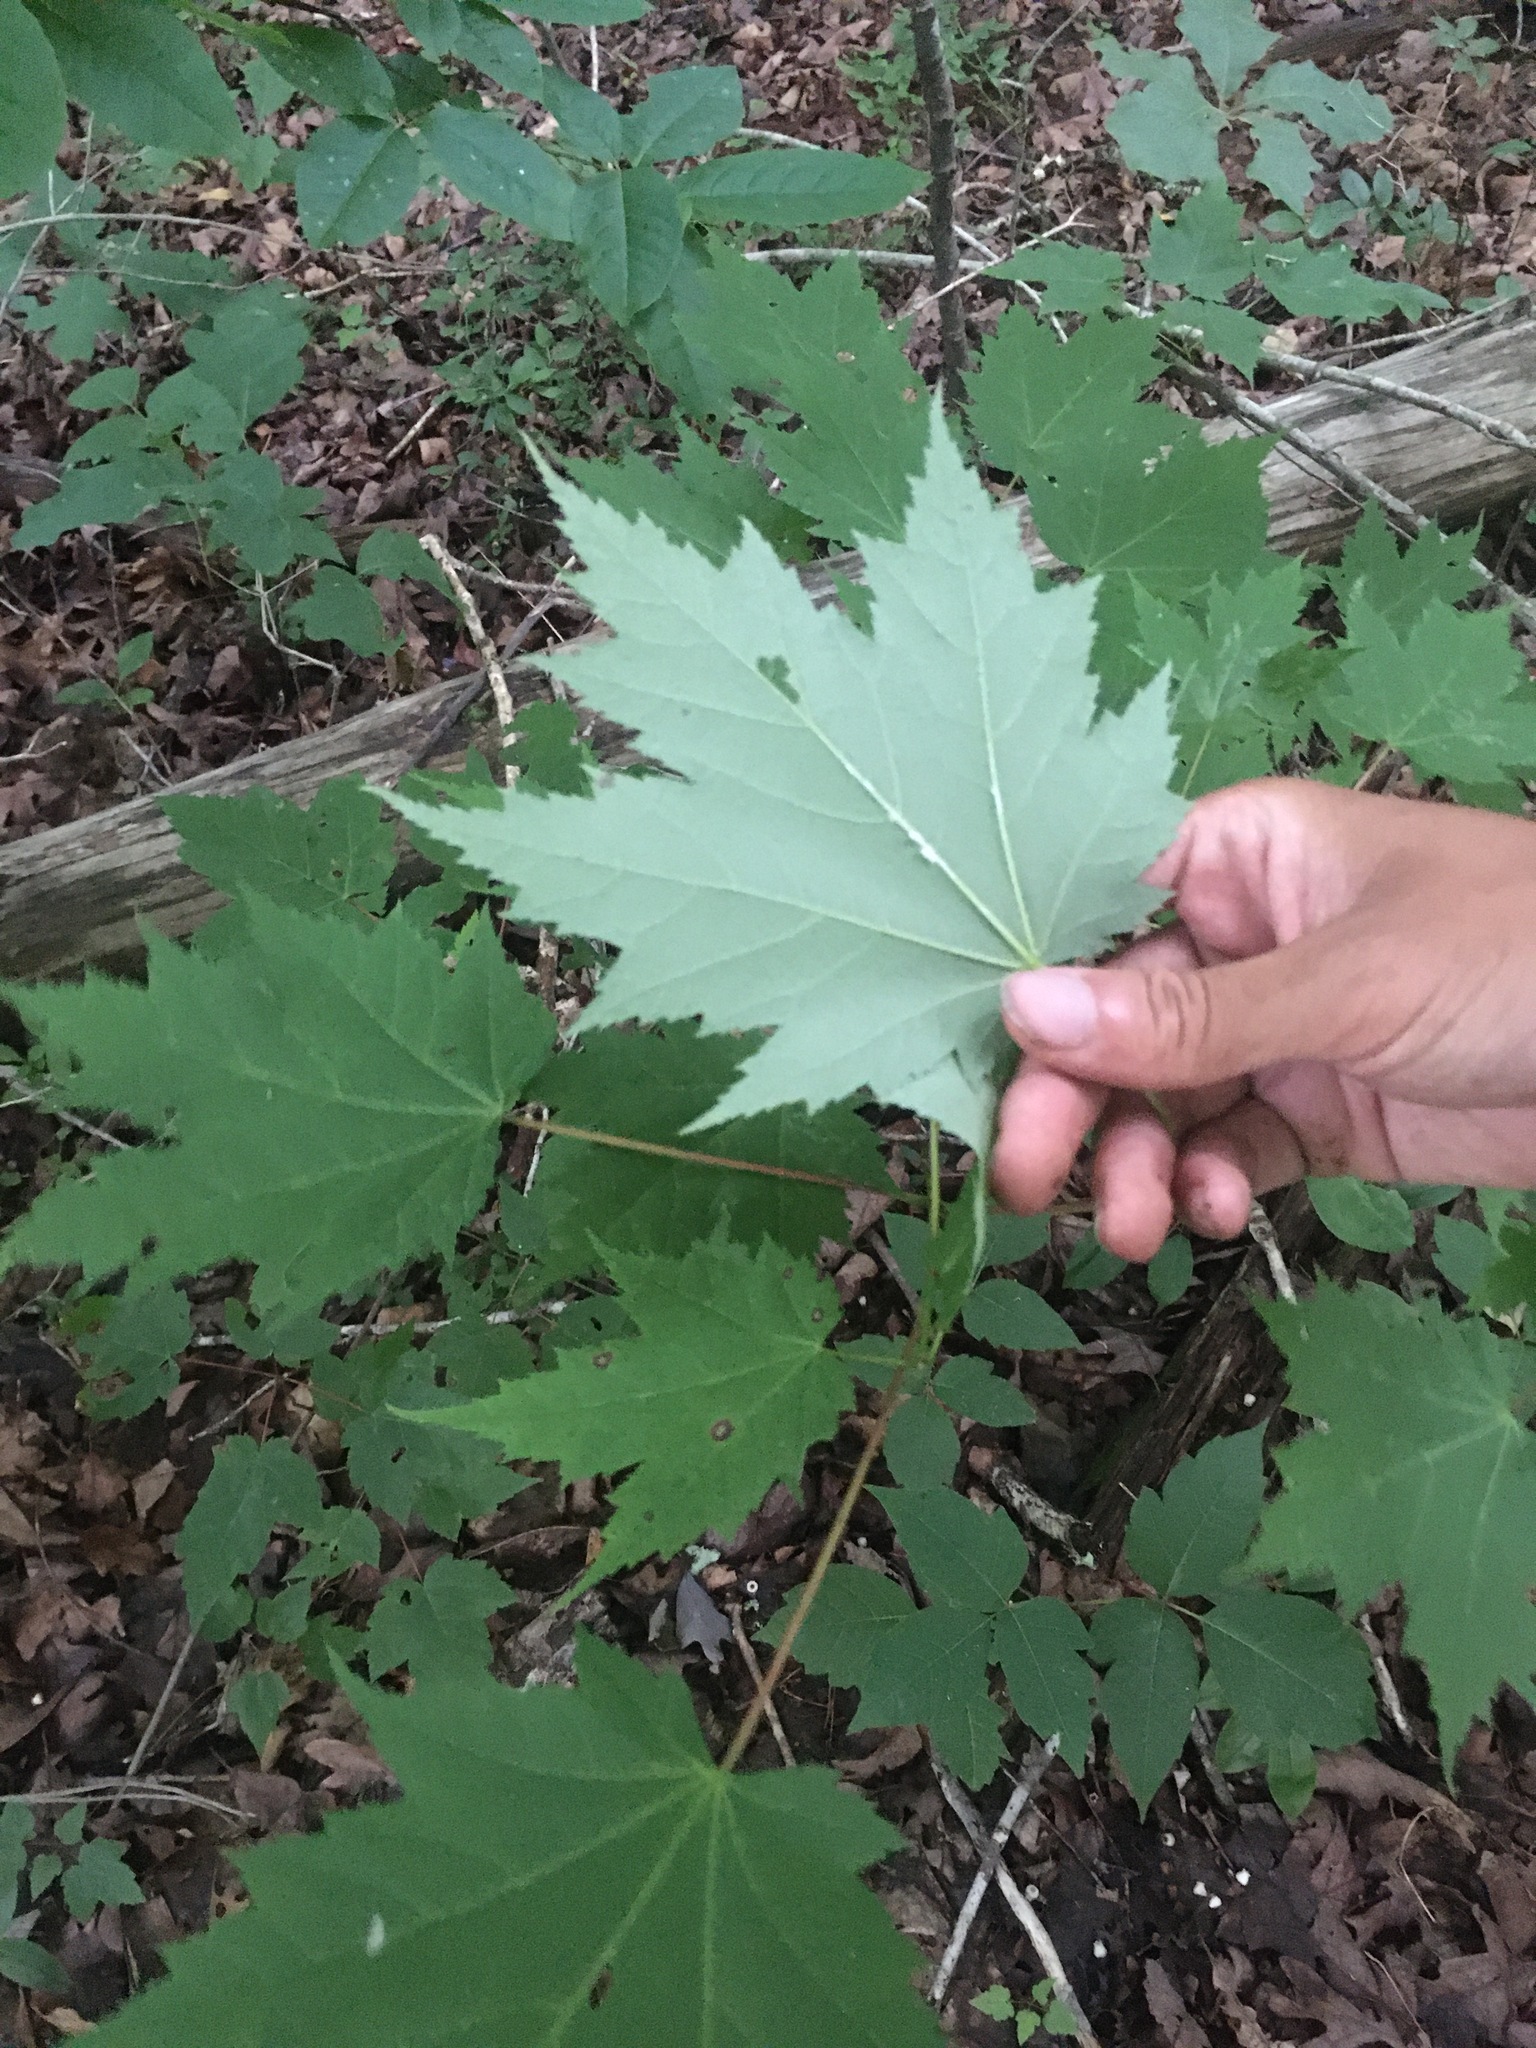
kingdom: Plantae
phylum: Tracheophyta
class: Magnoliopsida
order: Sapindales
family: Sapindaceae
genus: Acer
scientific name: Acer freemanii
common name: Freeman maple
